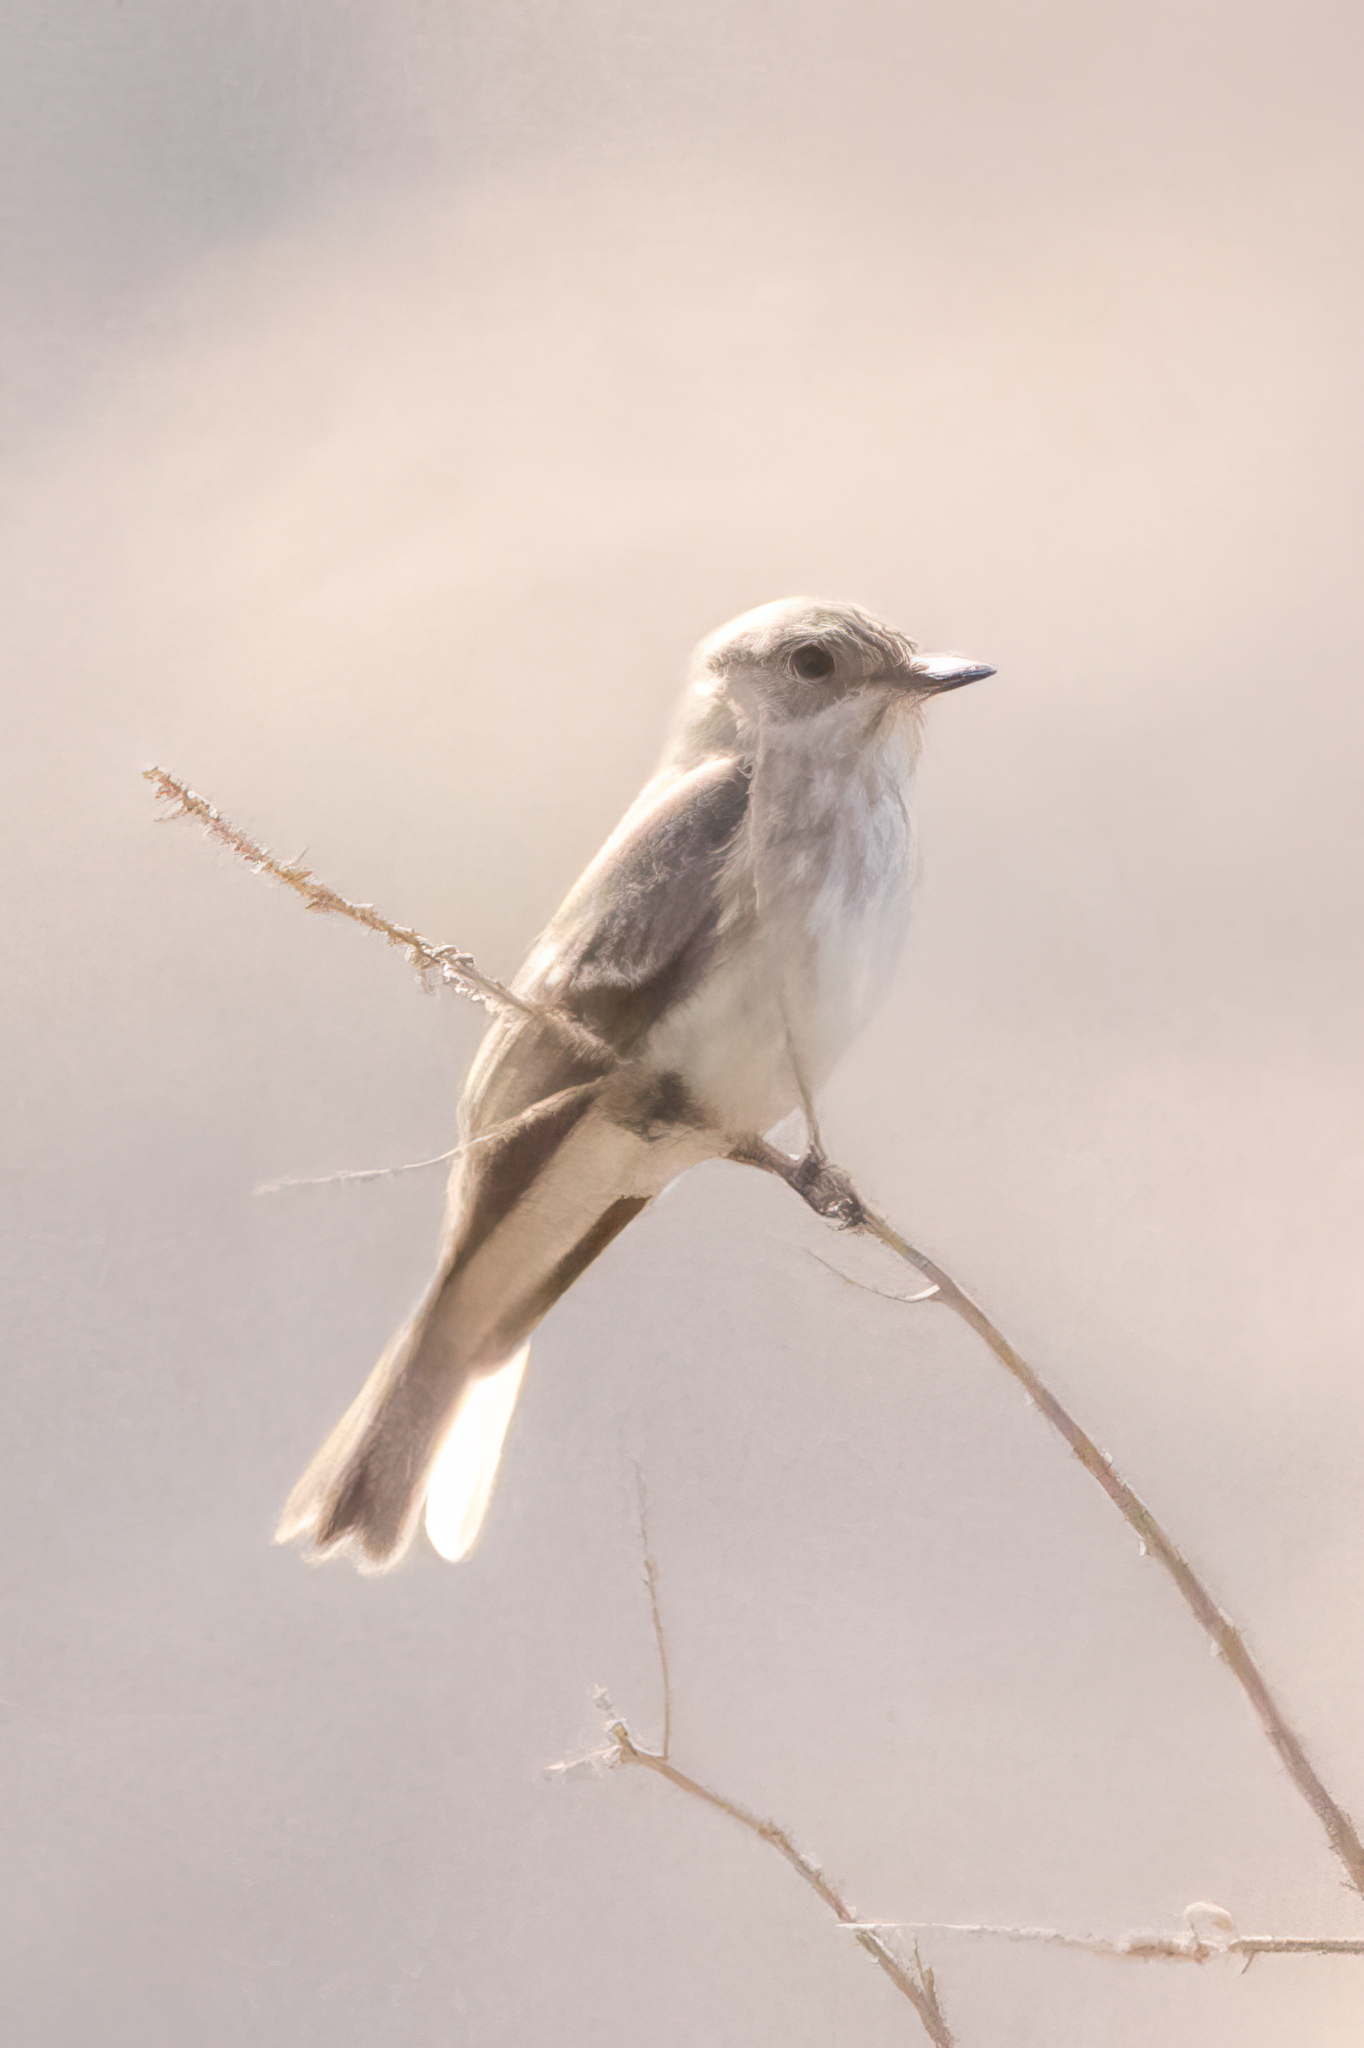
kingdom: Animalia
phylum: Chordata
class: Aves
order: Passeriformes
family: Muscicapidae
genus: Muscicapa
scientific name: Muscicapa striata
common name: Spotted flycatcher
